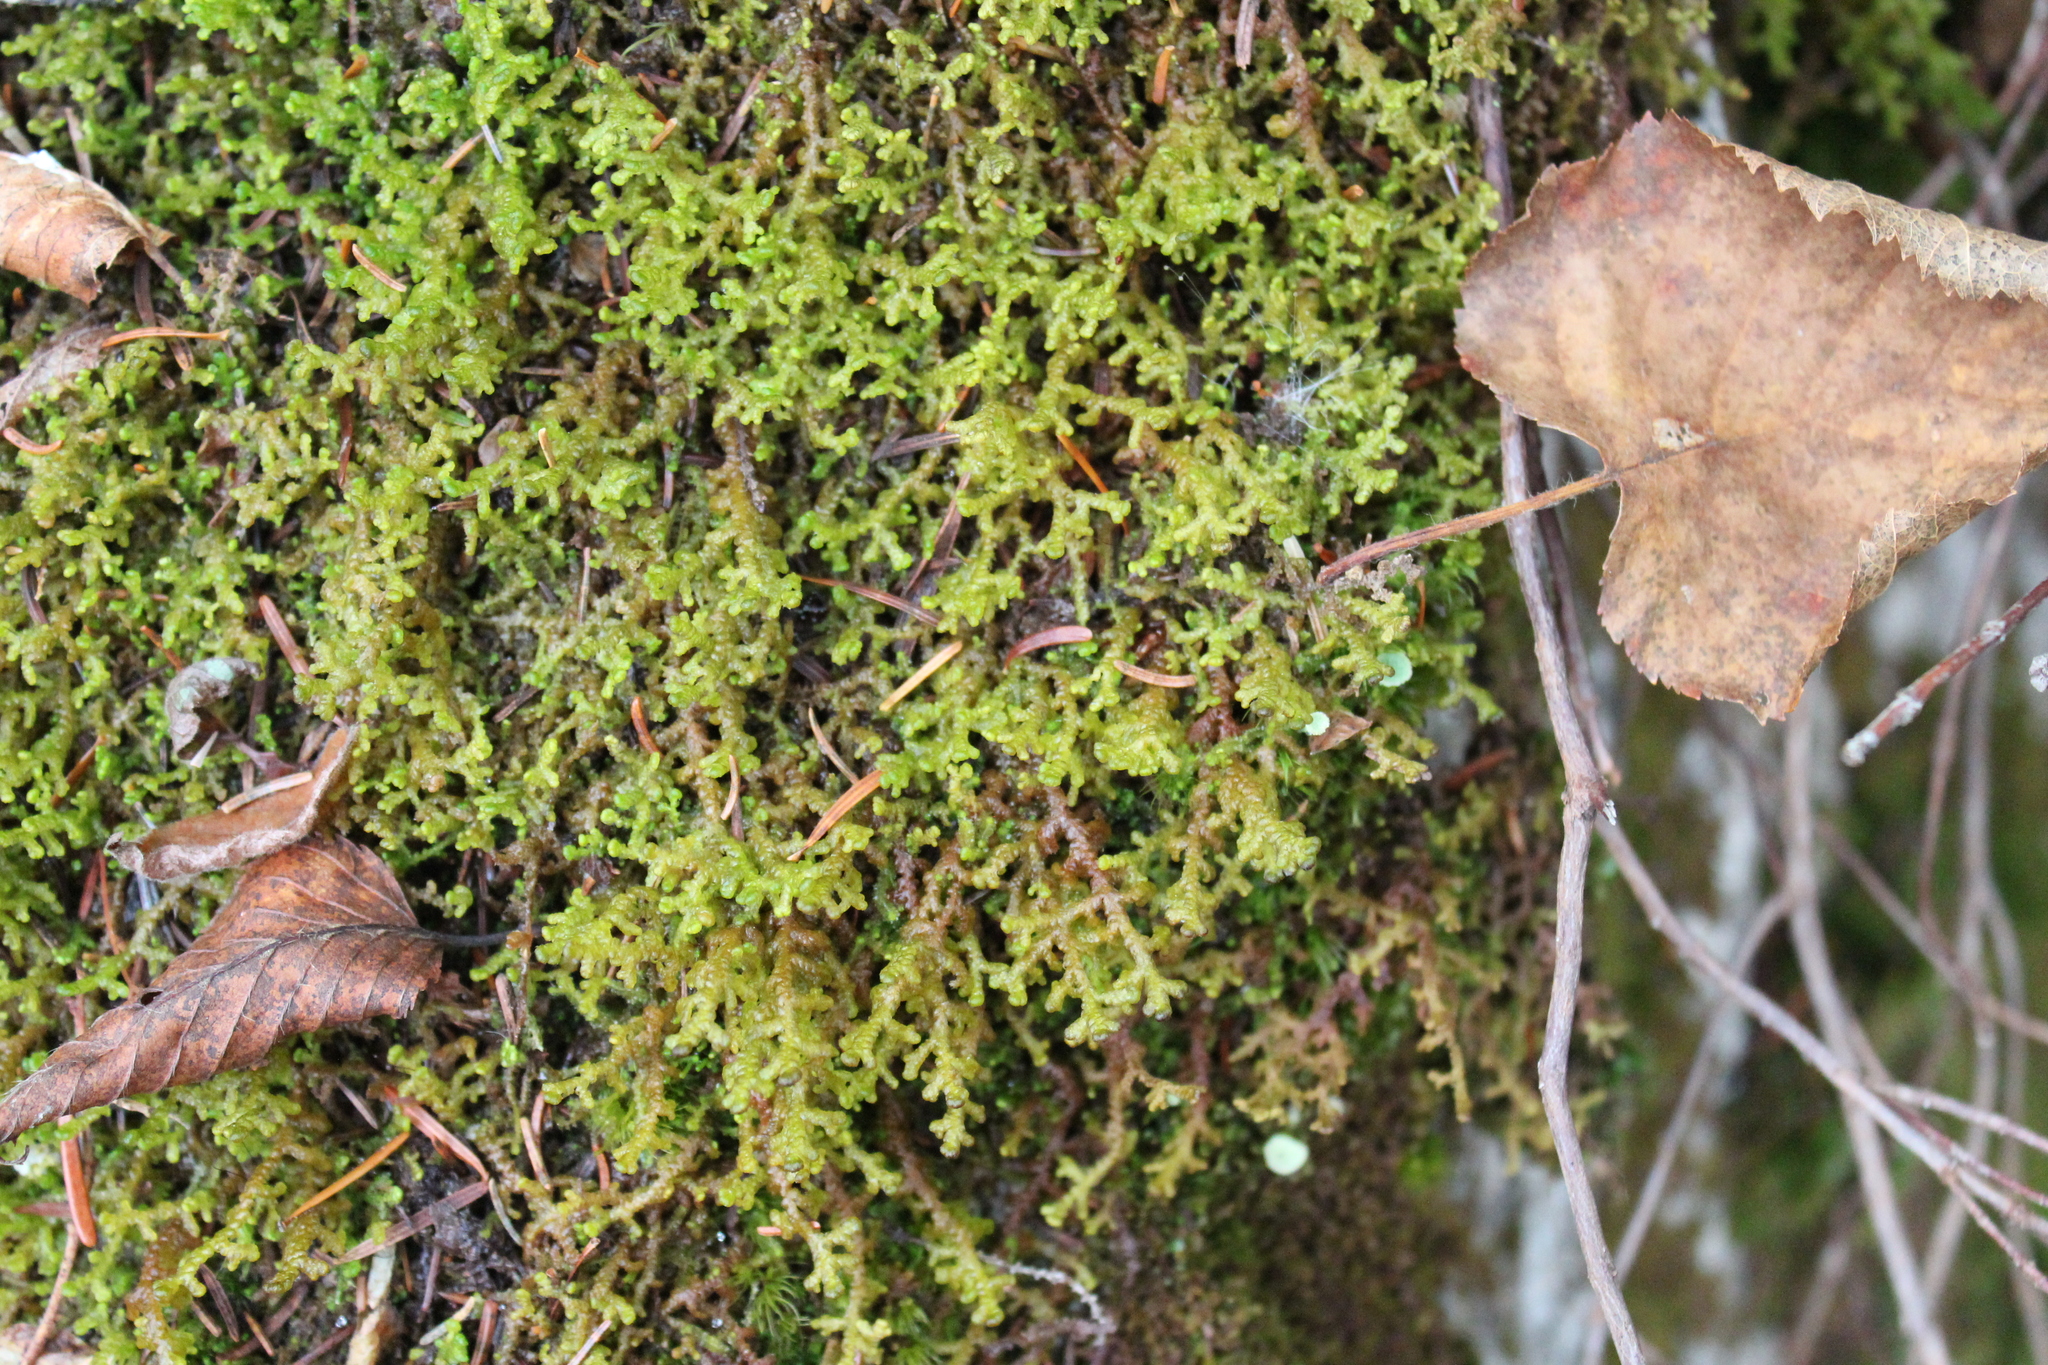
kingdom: Plantae
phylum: Marchantiophyta
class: Jungermanniopsida
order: Ptilidiales
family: Ptilidiaceae
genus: Ptilidium
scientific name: Ptilidium ciliare
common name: Ciliate fringewort
